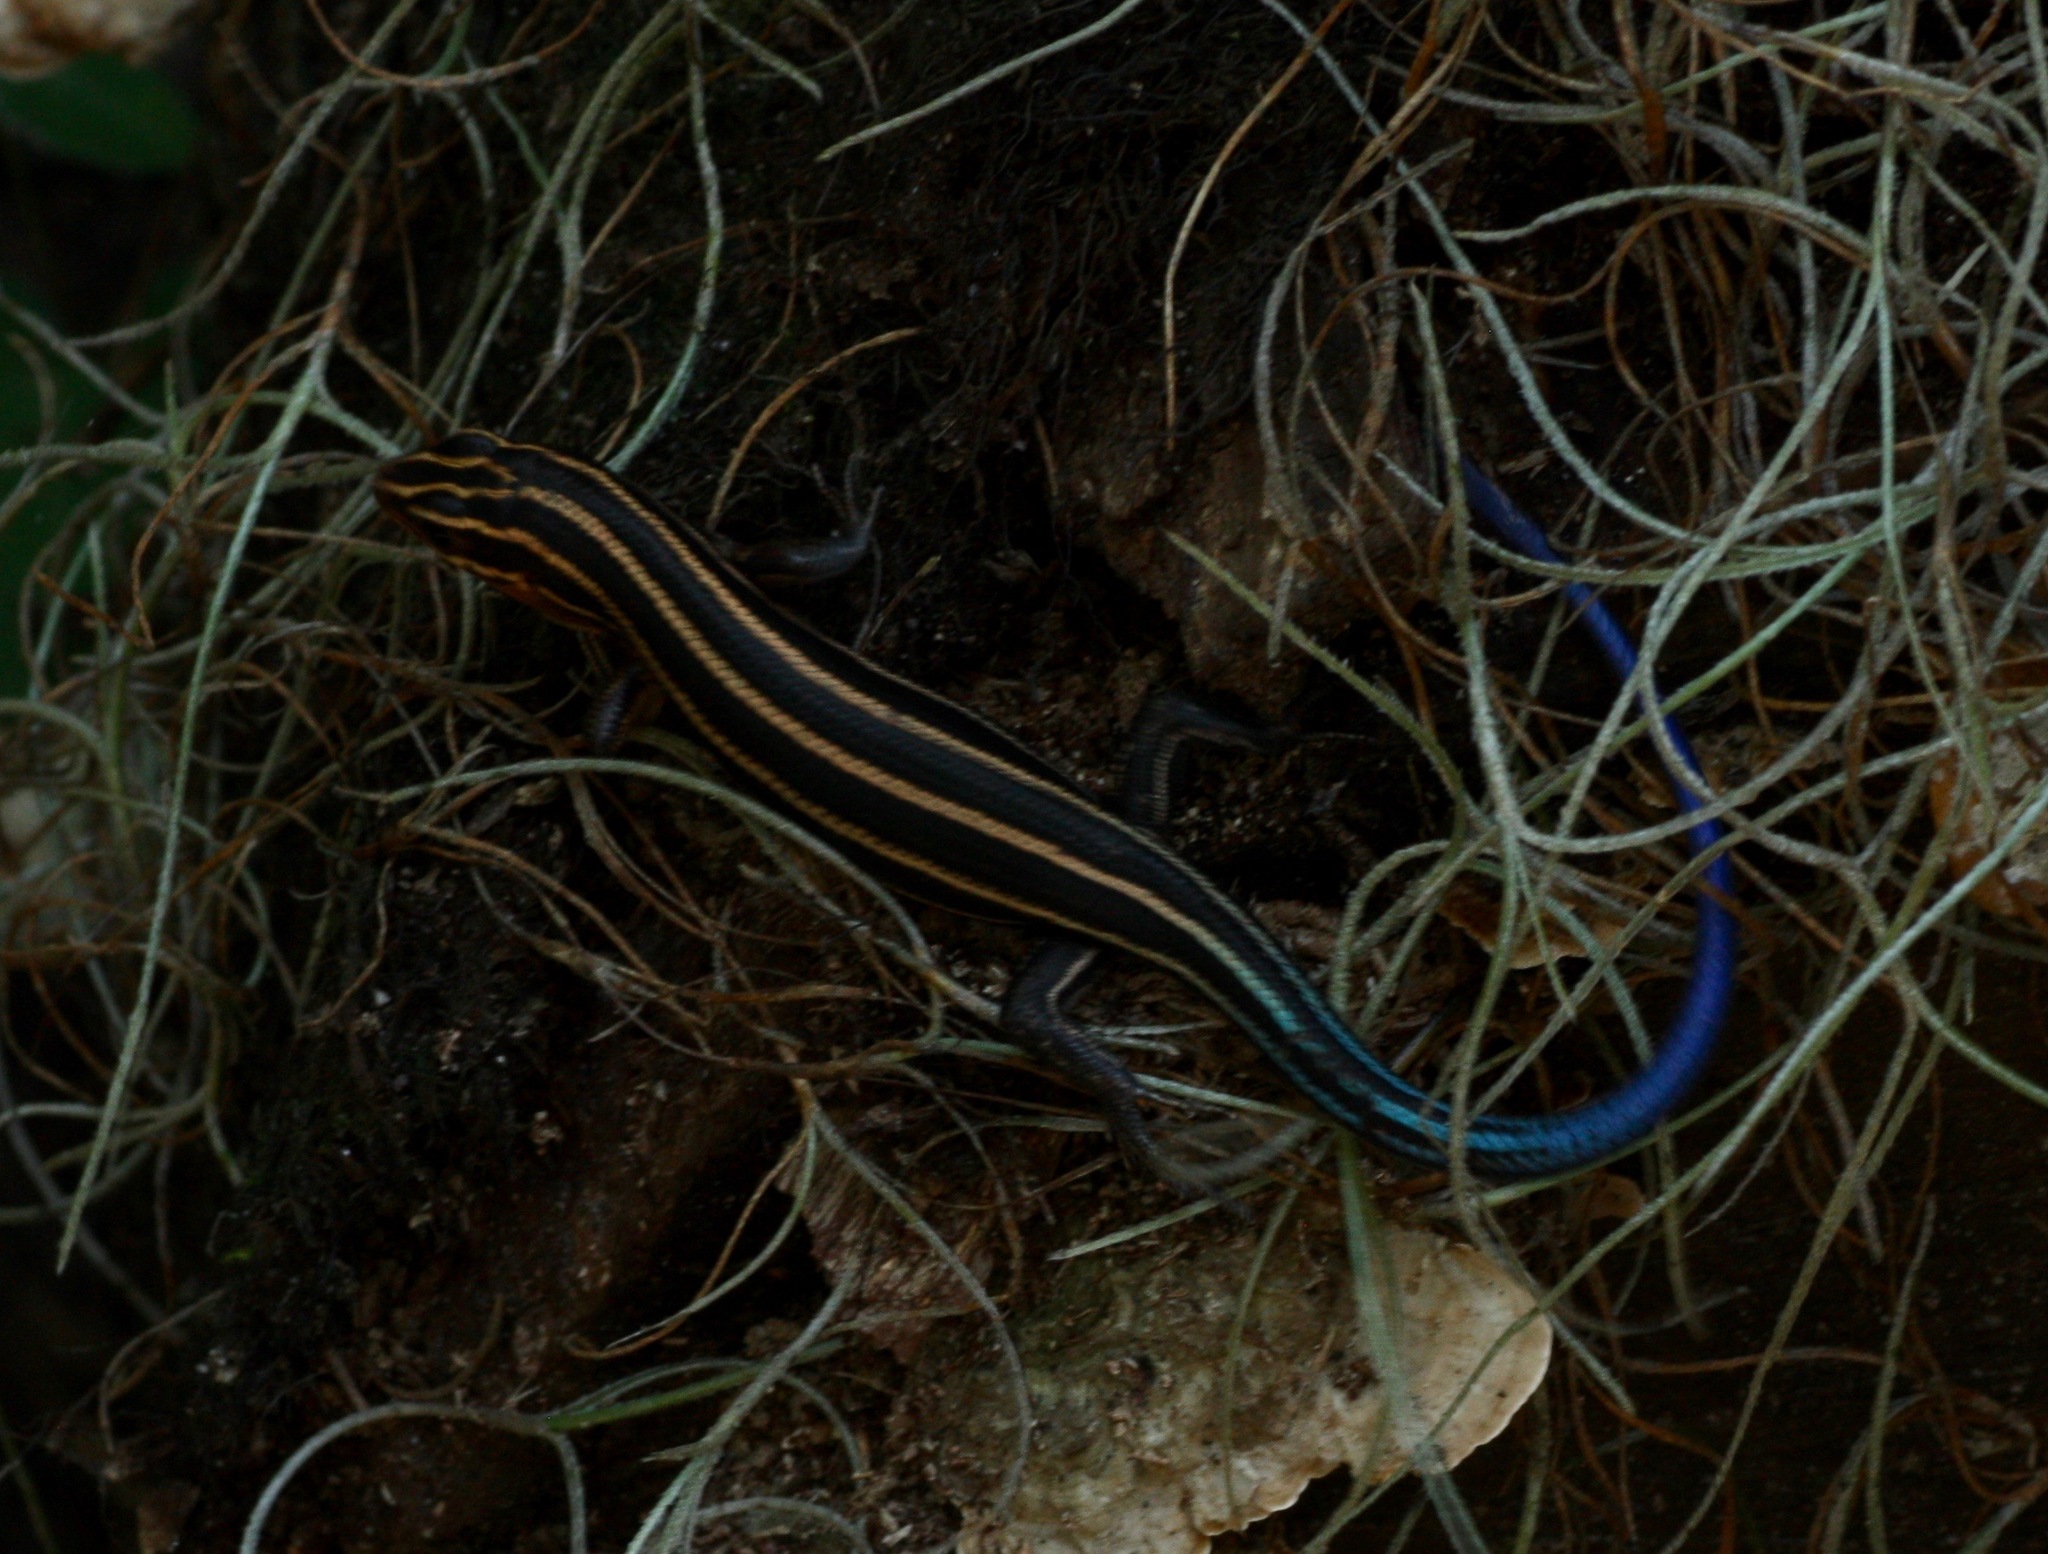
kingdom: Animalia
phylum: Chordata
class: Squamata
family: Scincidae
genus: Plestiodon
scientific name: Plestiodon fasciatus
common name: Five-lined skink
